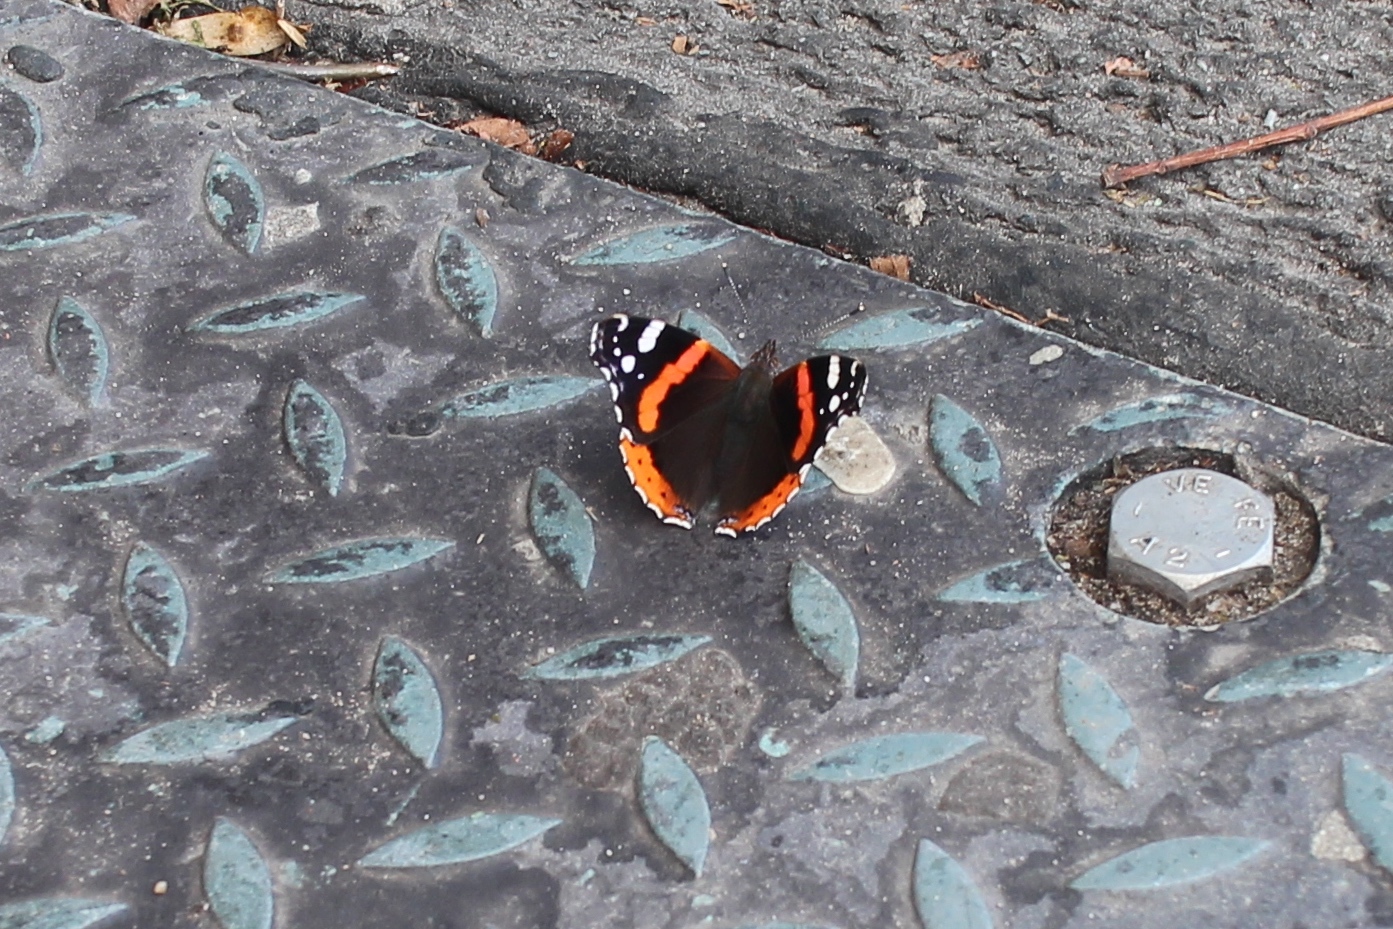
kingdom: Animalia
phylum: Arthropoda
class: Insecta
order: Lepidoptera
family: Nymphalidae
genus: Vanessa
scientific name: Vanessa atalanta
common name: Red admiral
